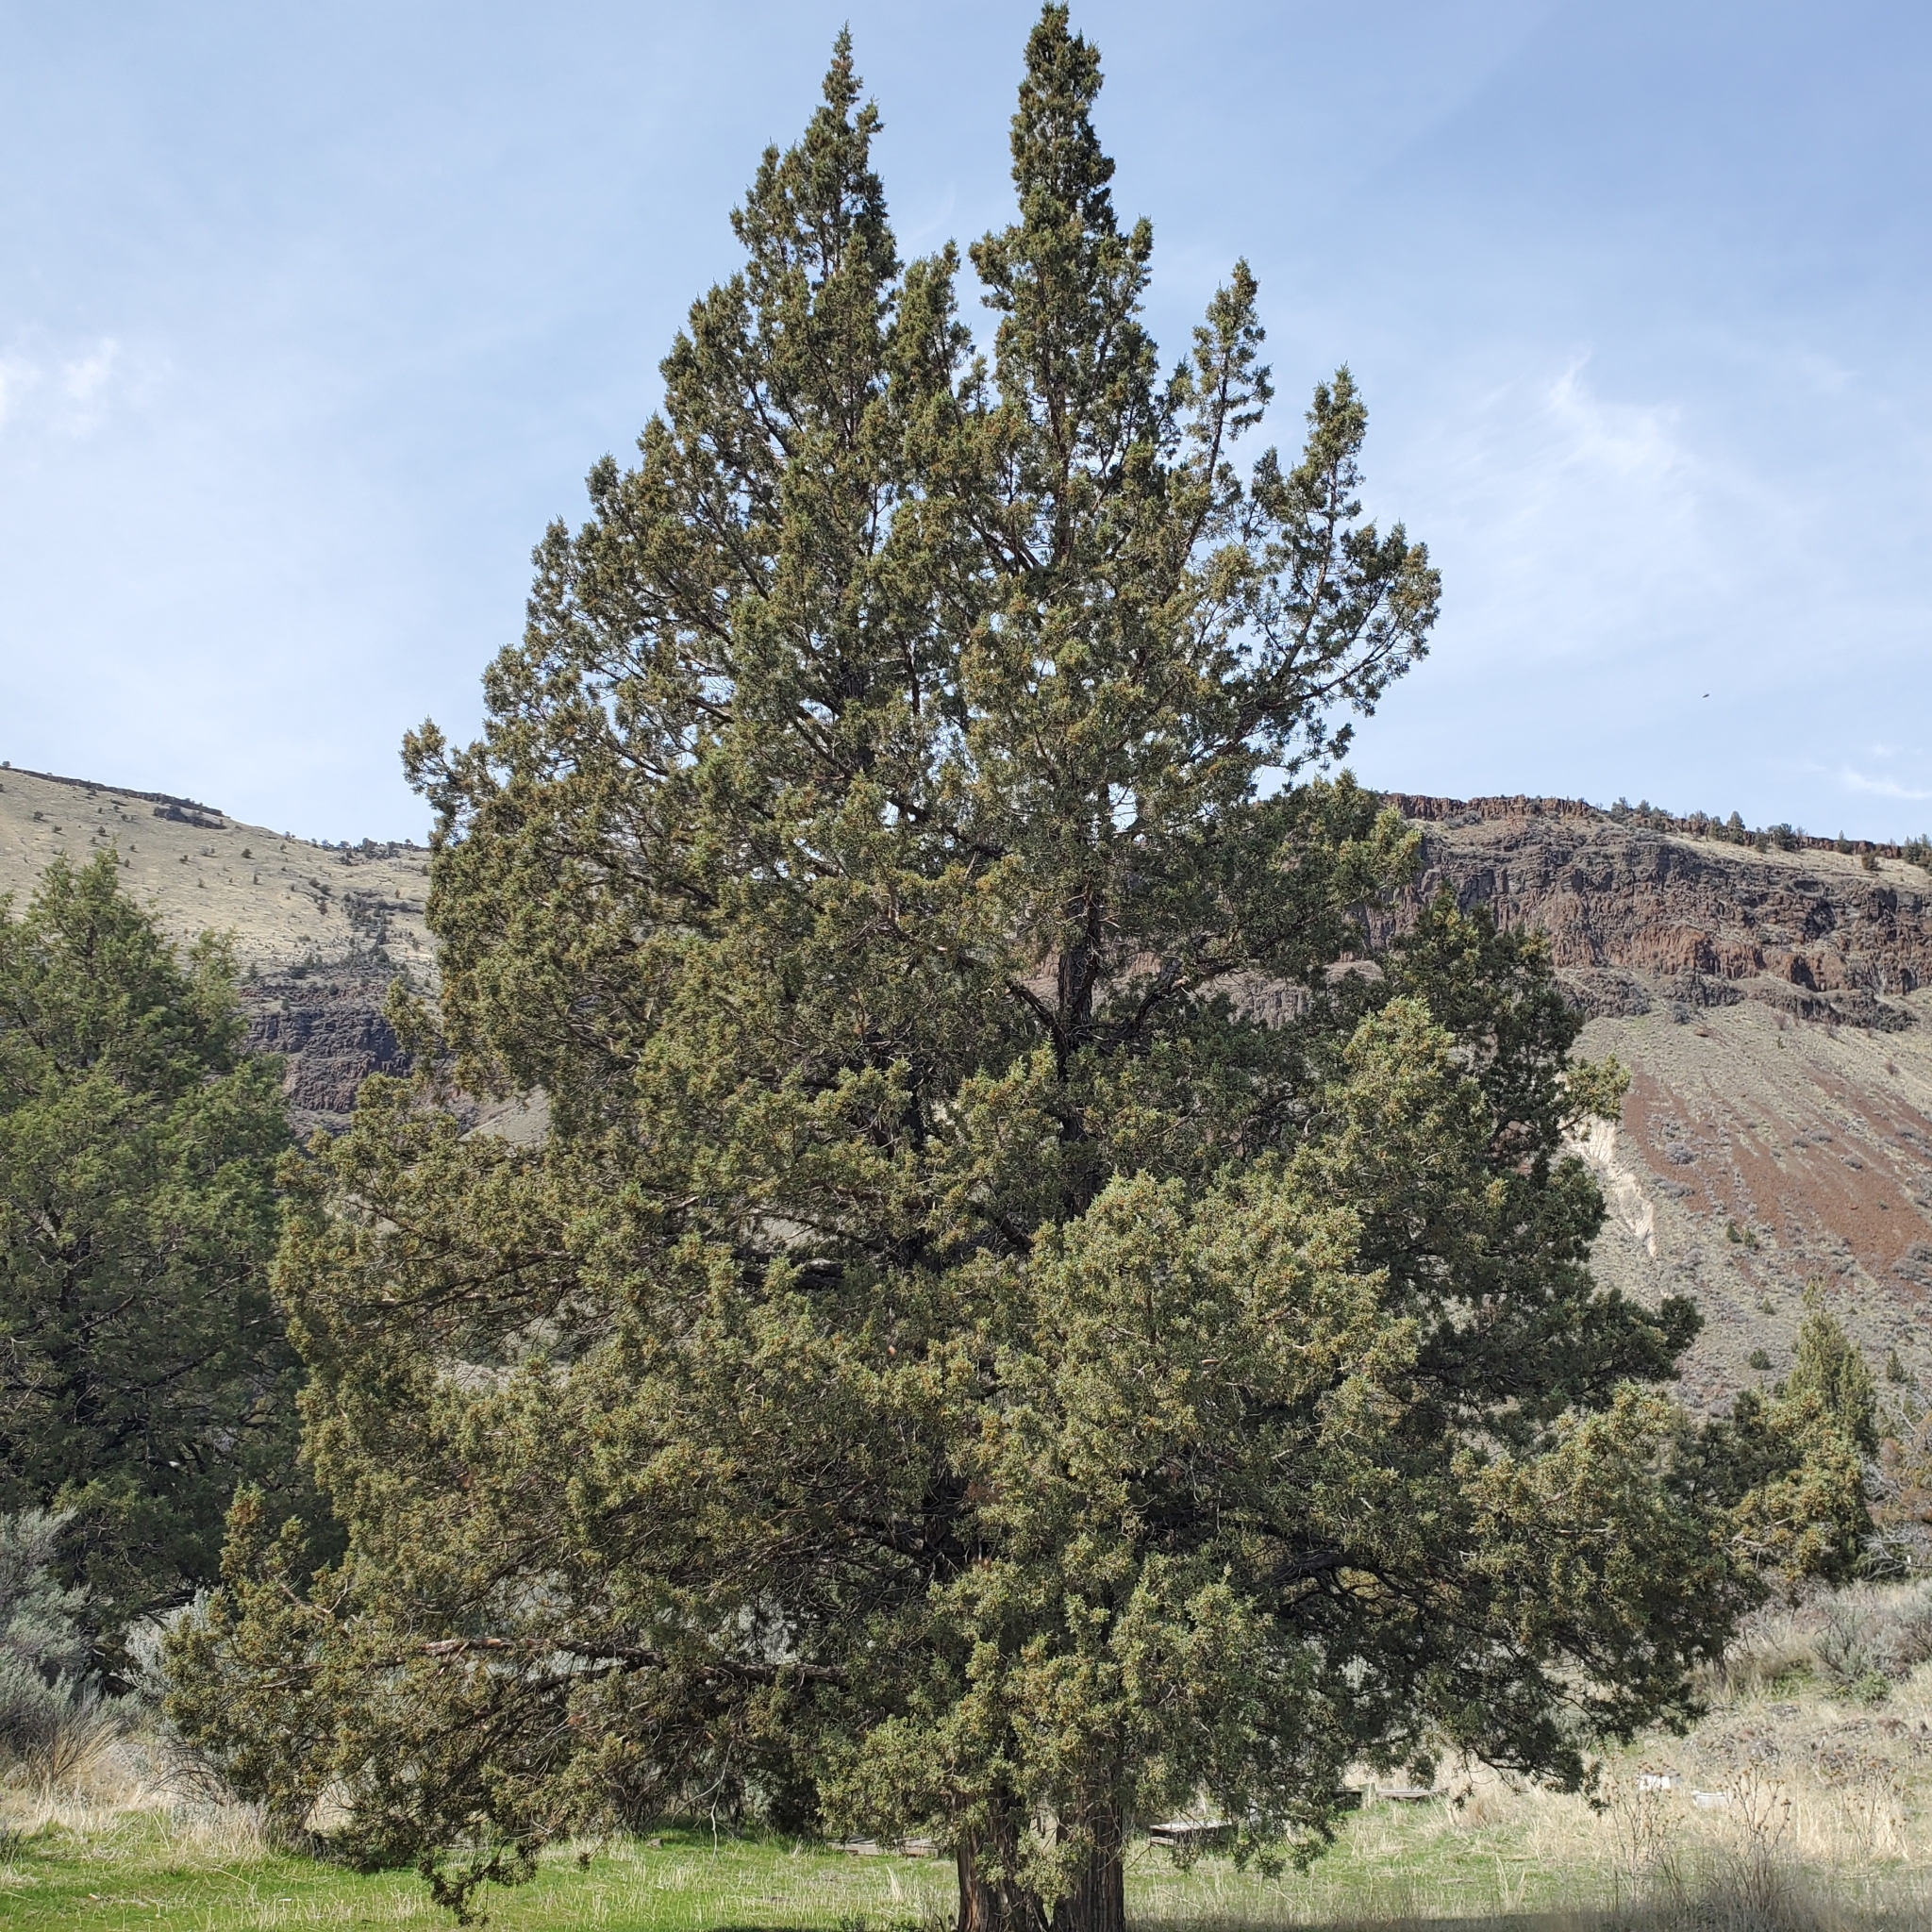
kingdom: Plantae
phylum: Tracheophyta
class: Pinopsida
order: Pinales
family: Cupressaceae
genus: Juniperus
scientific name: Juniperus occidentalis
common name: Western juniper
